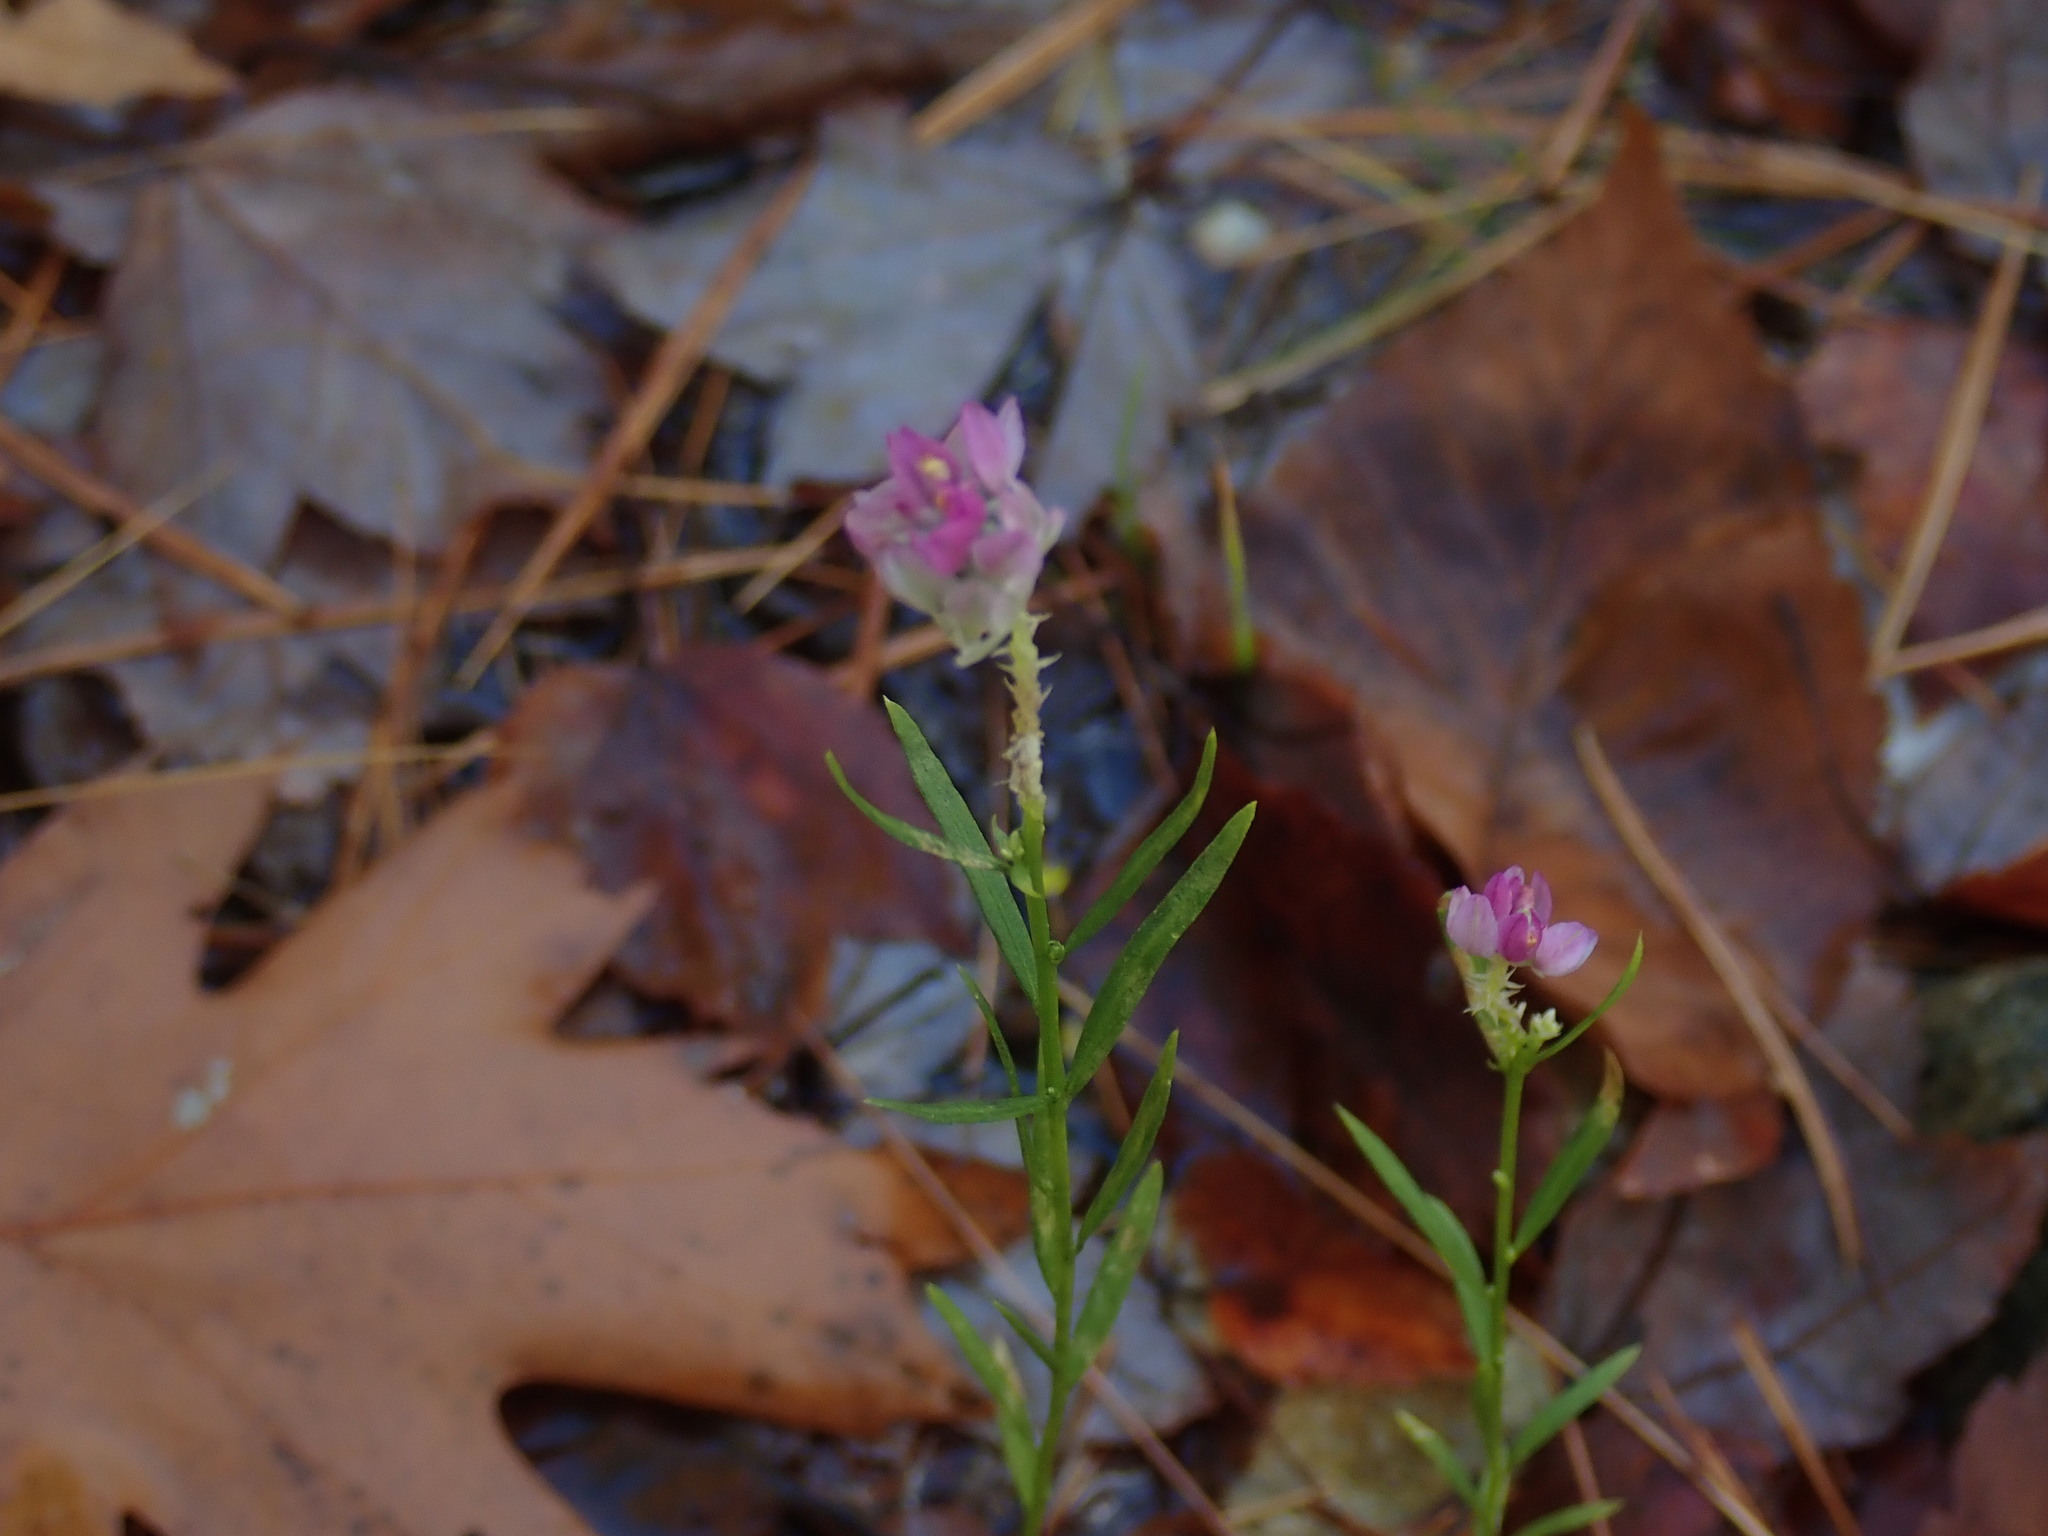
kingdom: Plantae
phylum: Tracheophyta
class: Magnoliopsida
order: Fabales
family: Polygalaceae
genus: Polygala
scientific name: Polygala sanguinea
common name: Blood milkwort
